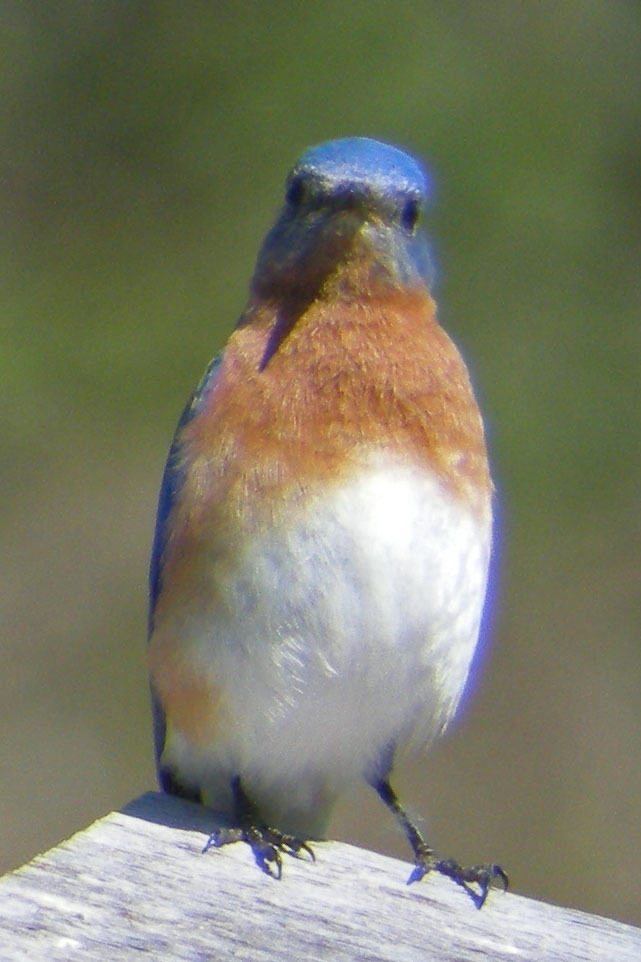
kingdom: Animalia
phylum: Chordata
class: Aves
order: Passeriformes
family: Turdidae
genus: Sialia
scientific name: Sialia sialis
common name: Eastern bluebird
